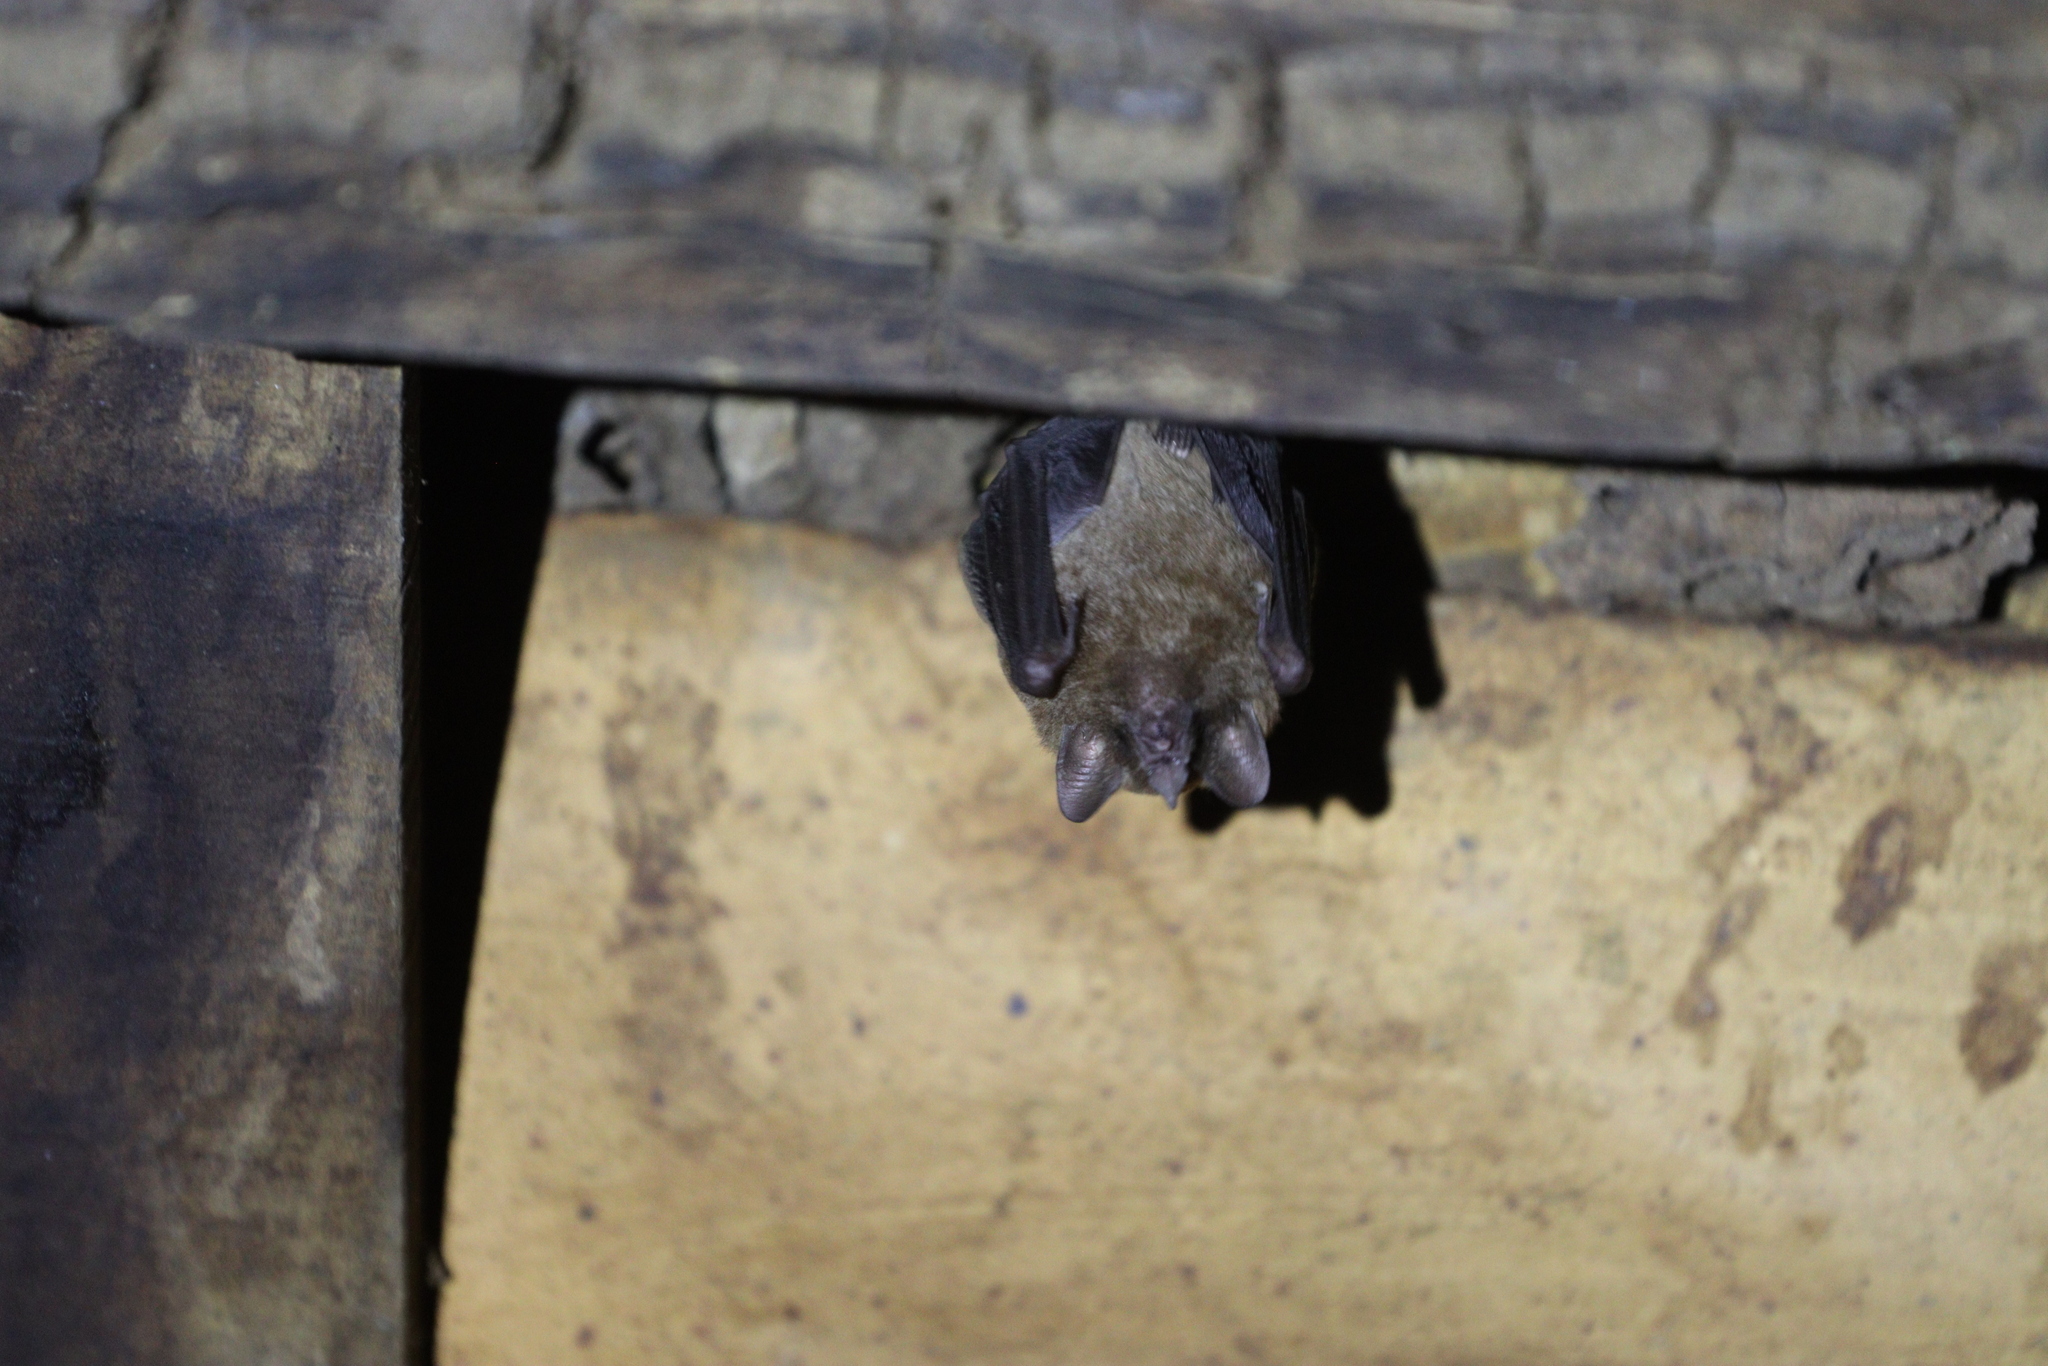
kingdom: Animalia
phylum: Chordata
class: Mammalia
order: Chiroptera
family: Phyllostomidae
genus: Glossophaga
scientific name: Glossophaga soricina
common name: Pallas's long-tongued bat
